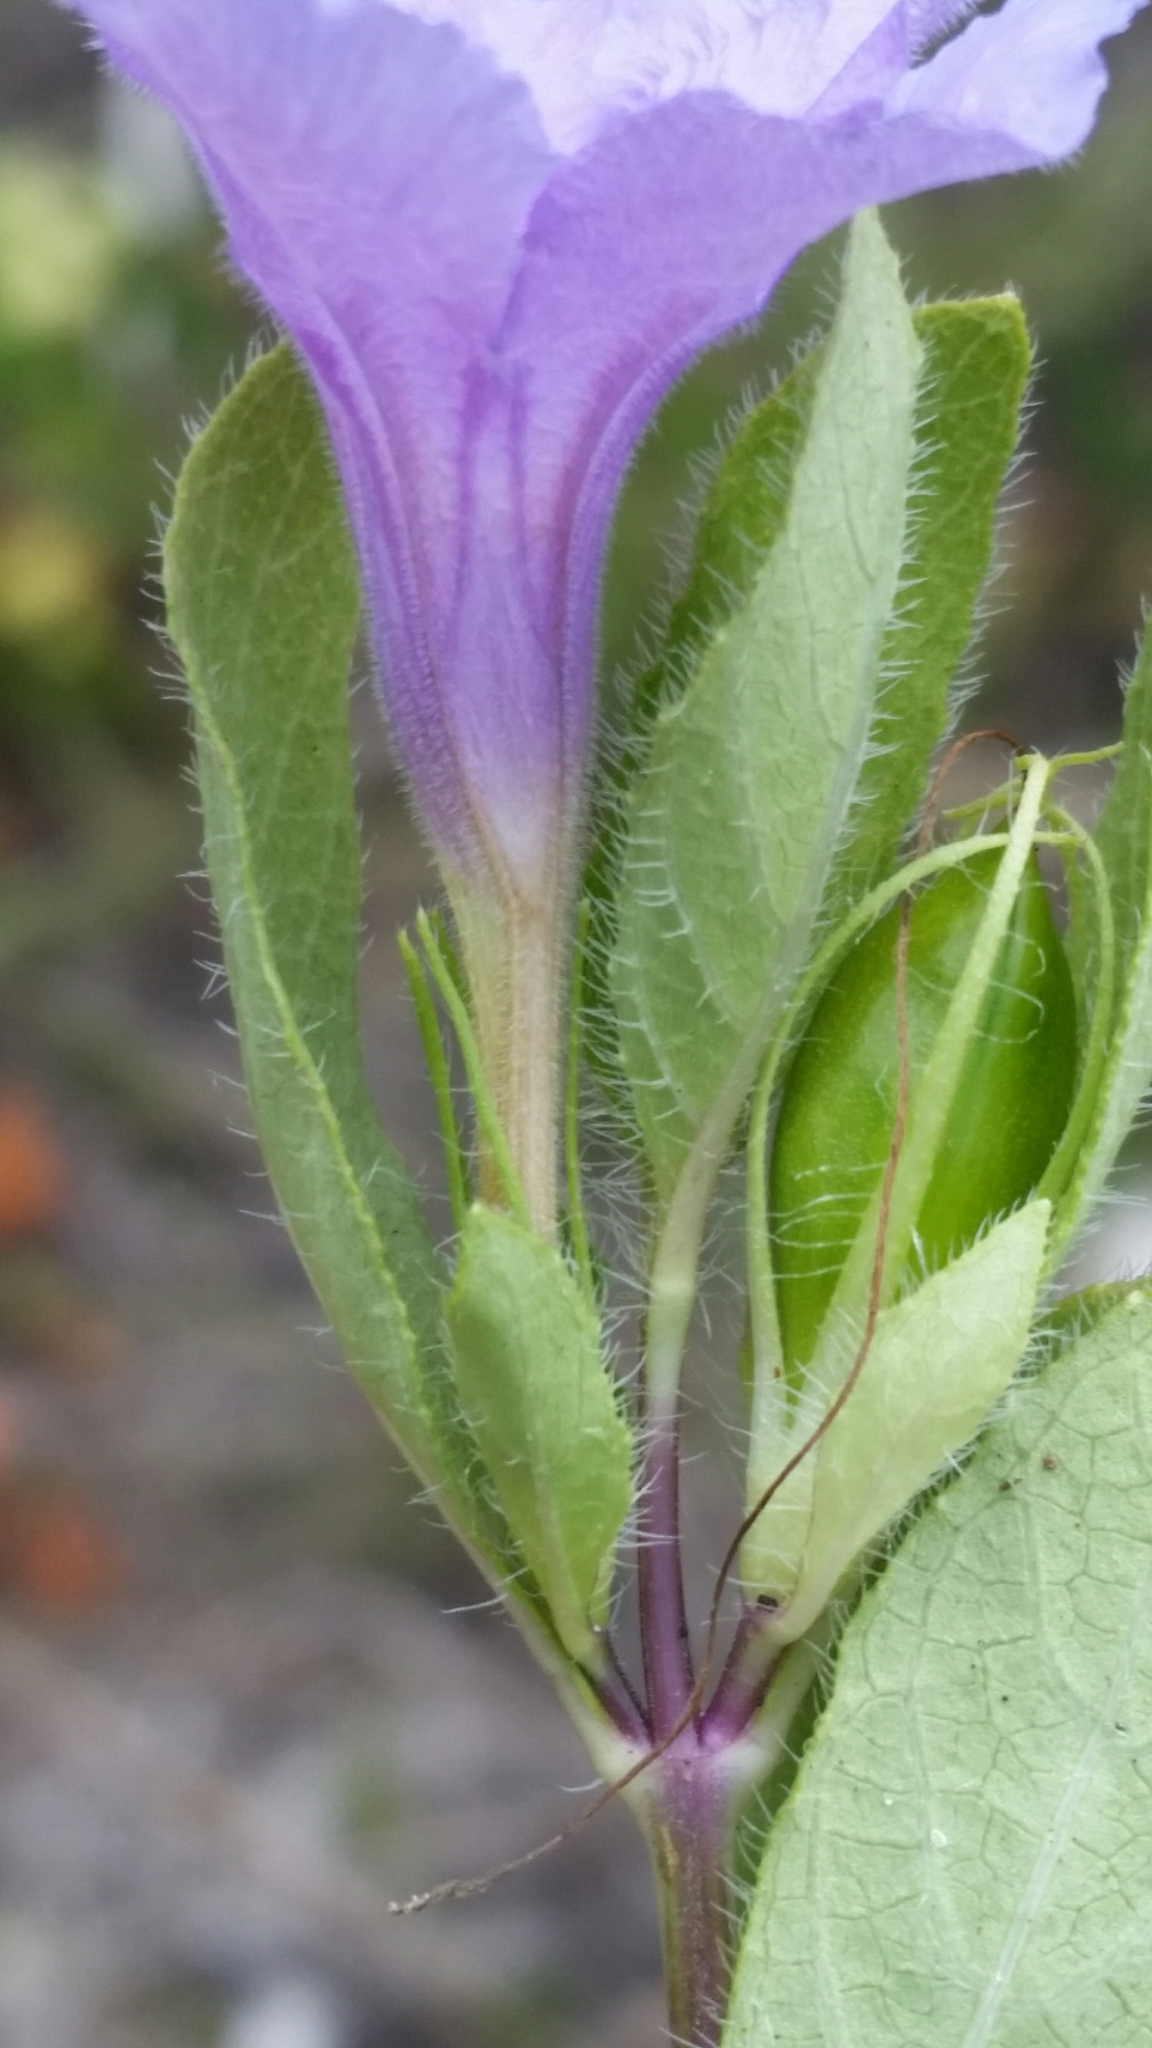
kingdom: Plantae
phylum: Tracheophyta
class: Magnoliopsida
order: Lamiales
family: Acanthaceae
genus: Ruellia
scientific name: Ruellia caroliniensis
